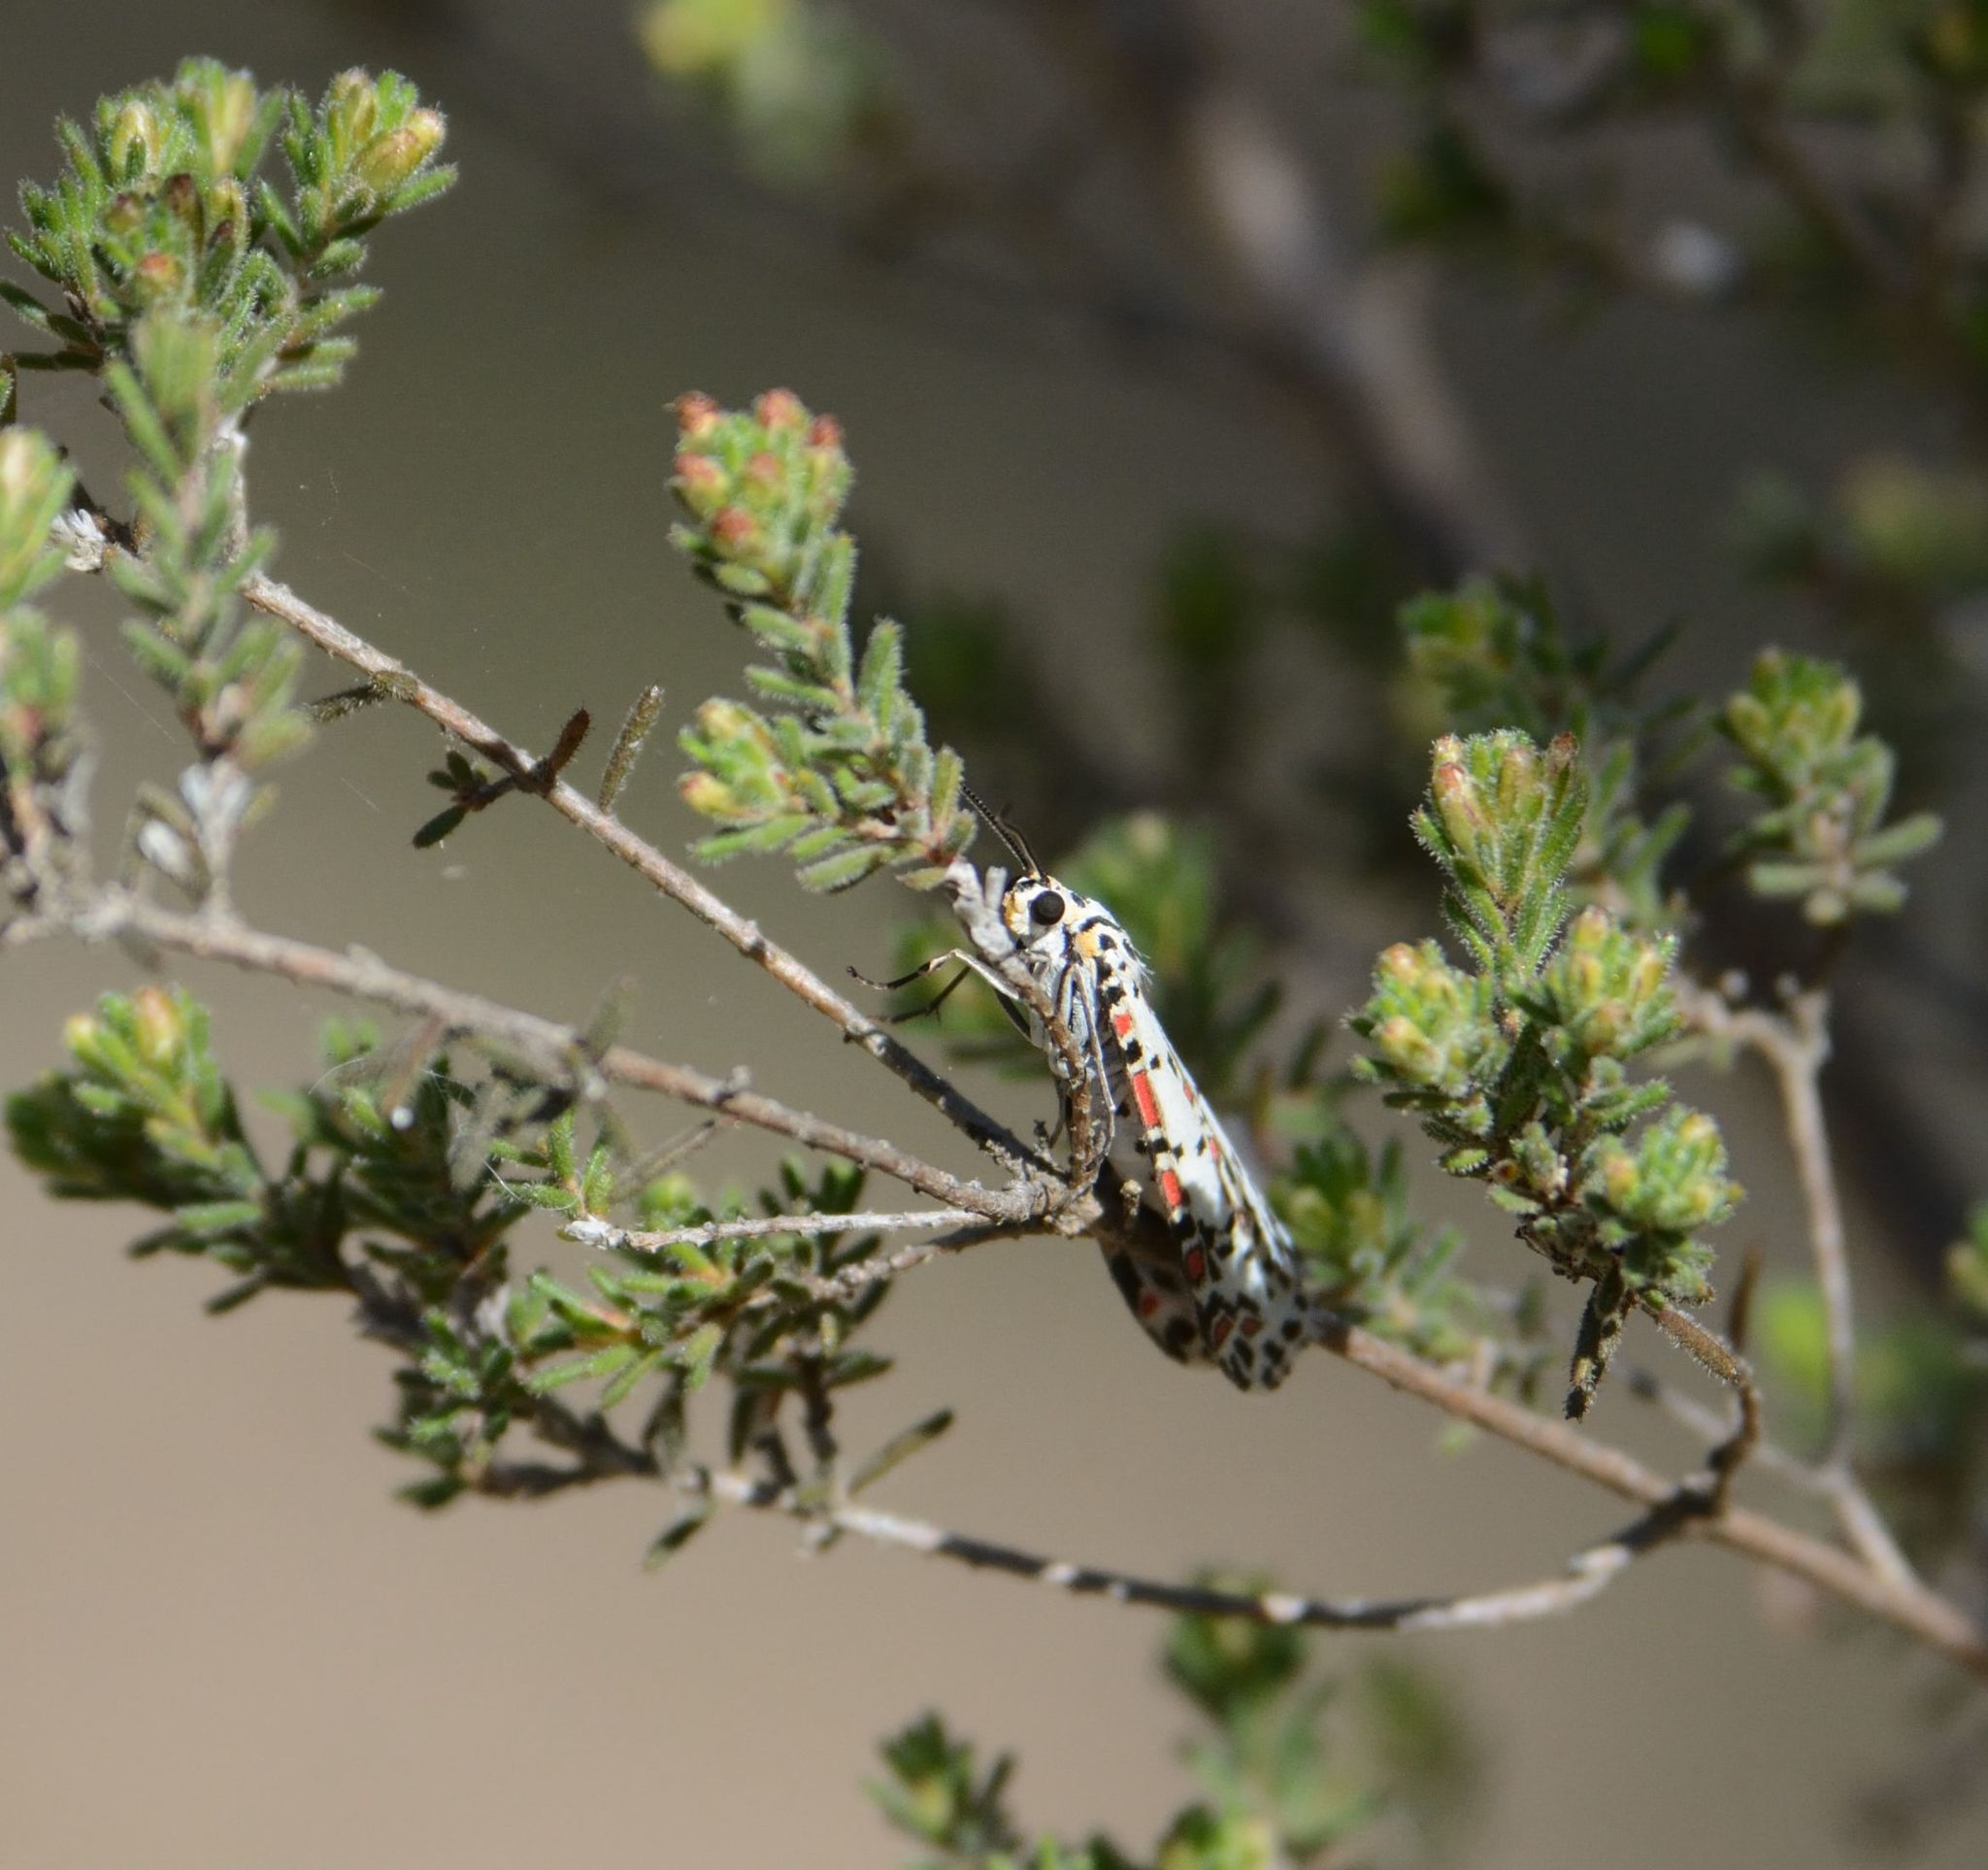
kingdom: Animalia
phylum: Arthropoda
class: Insecta
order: Lepidoptera
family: Erebidae
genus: Utetheisa
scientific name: Utetheisa pulchelloides
